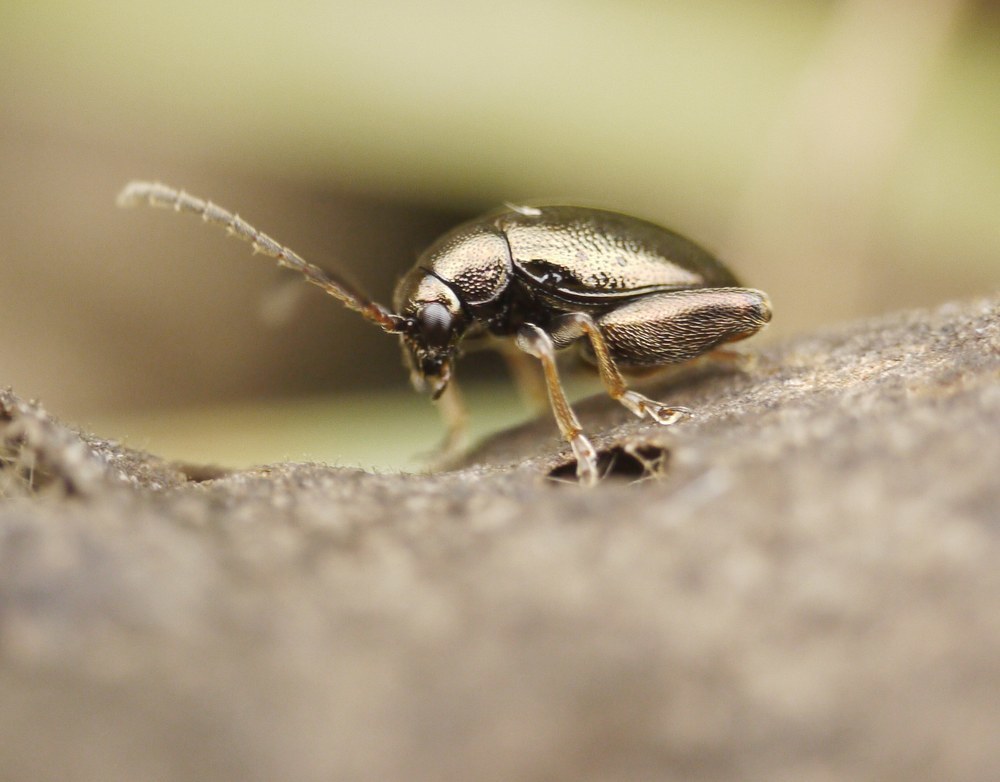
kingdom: Animalia
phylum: Arthropoda
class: Insecta
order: Coleoptera
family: Chrysomelidae
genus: Longitarsus
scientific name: Longitarsus echii
